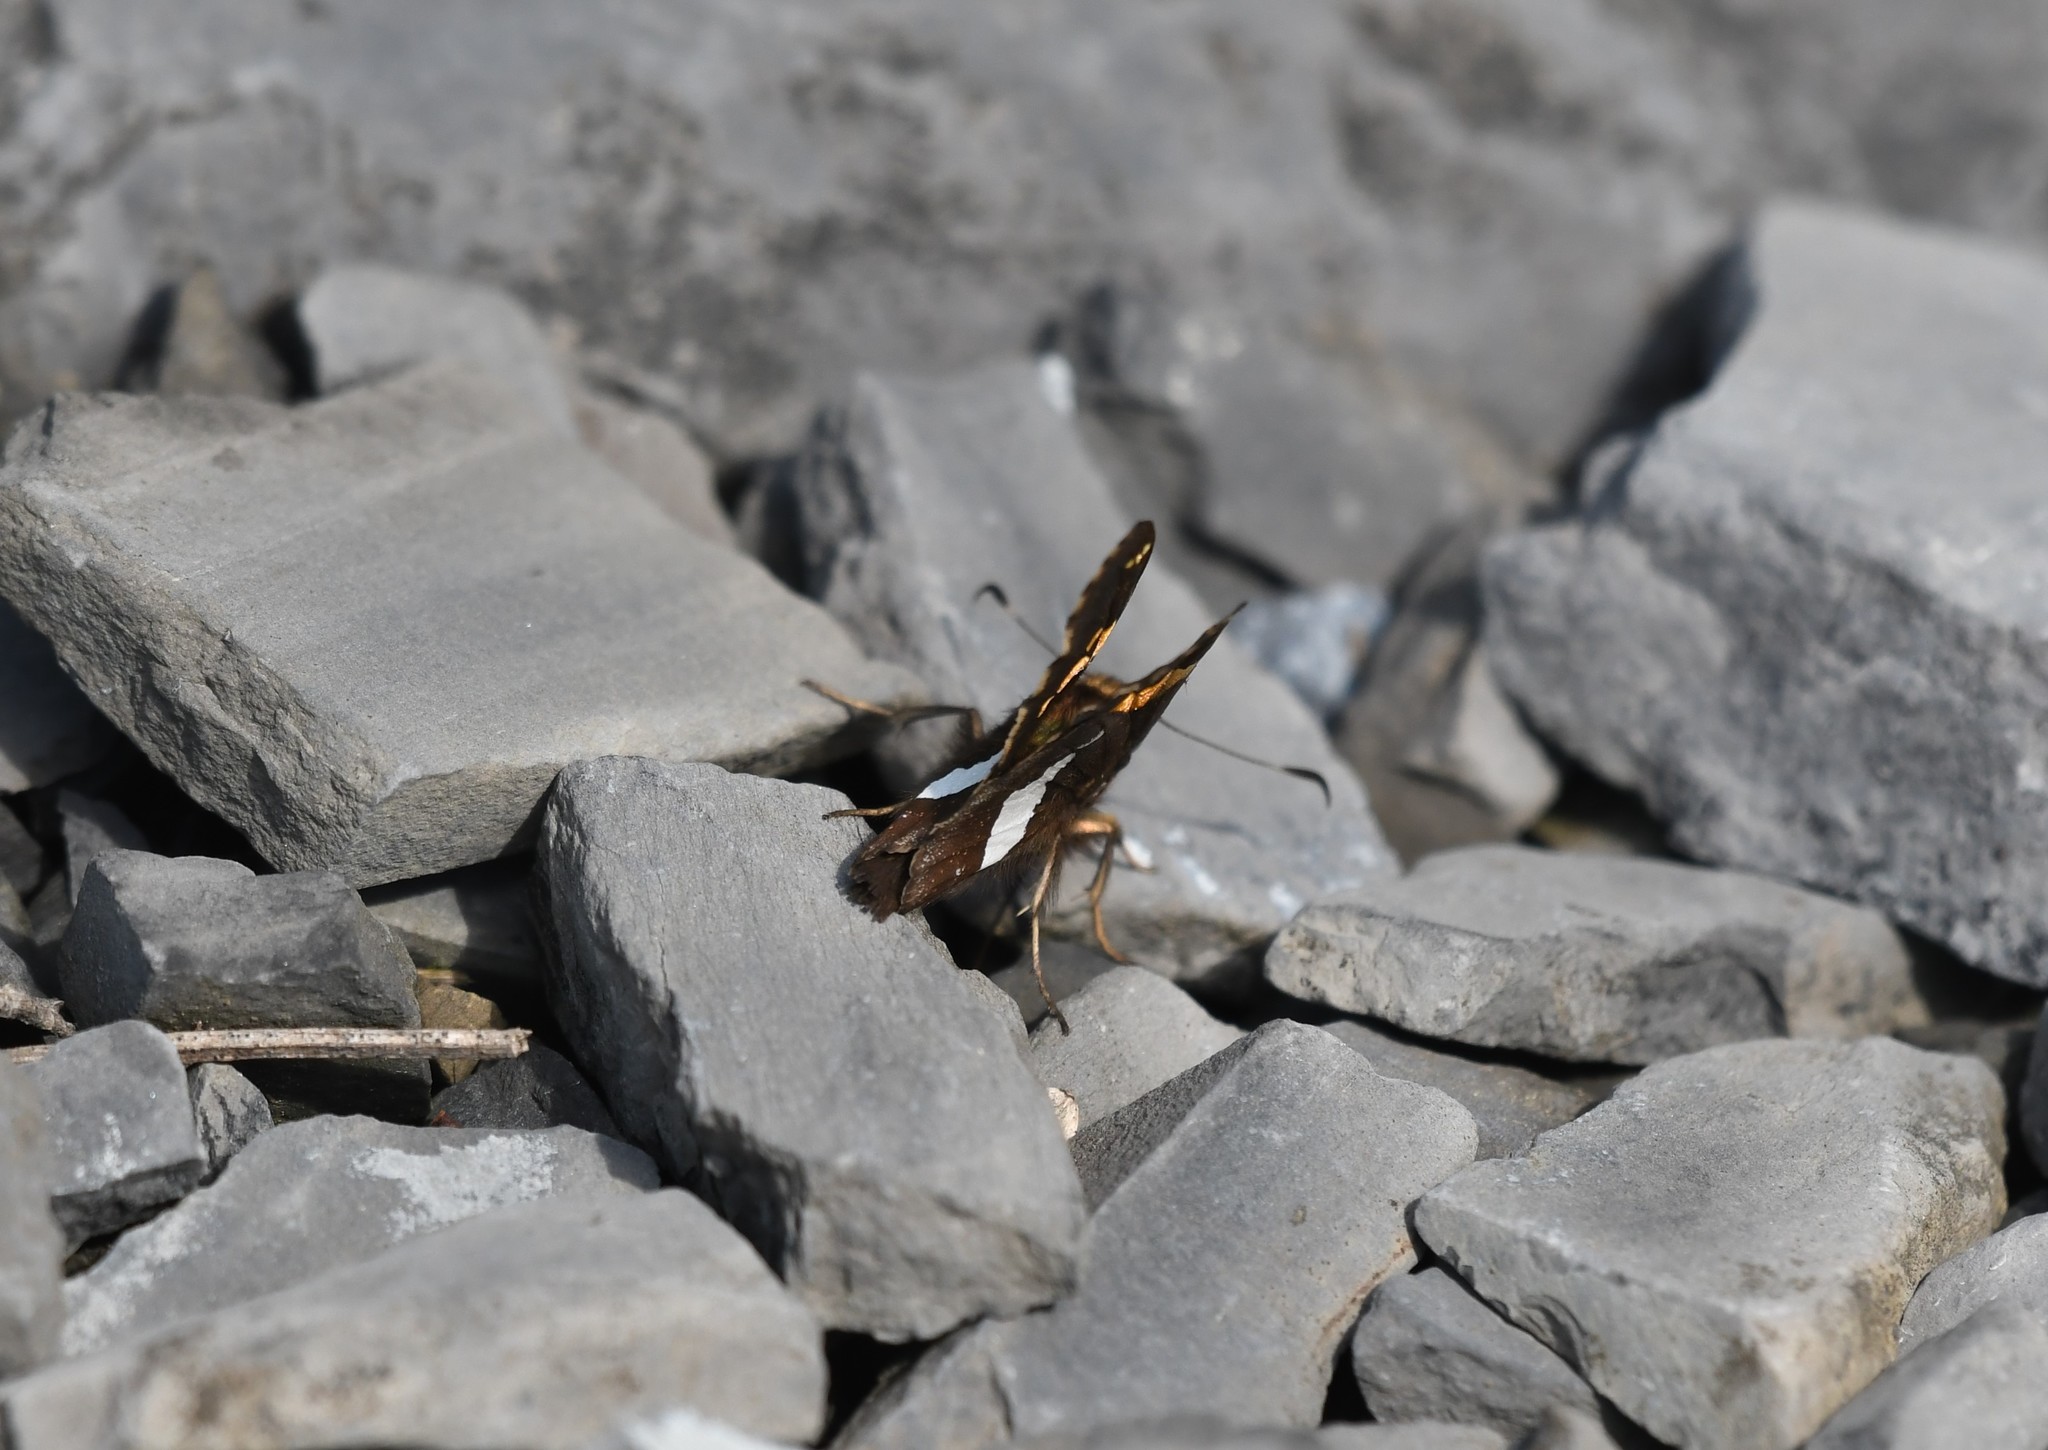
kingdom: Animalia
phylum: Arthropoda
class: Insecta
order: Lepidoptera
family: Hesperiidae
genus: Epargyreus
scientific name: Epargyreus clarus
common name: Silver-spotted skipper
